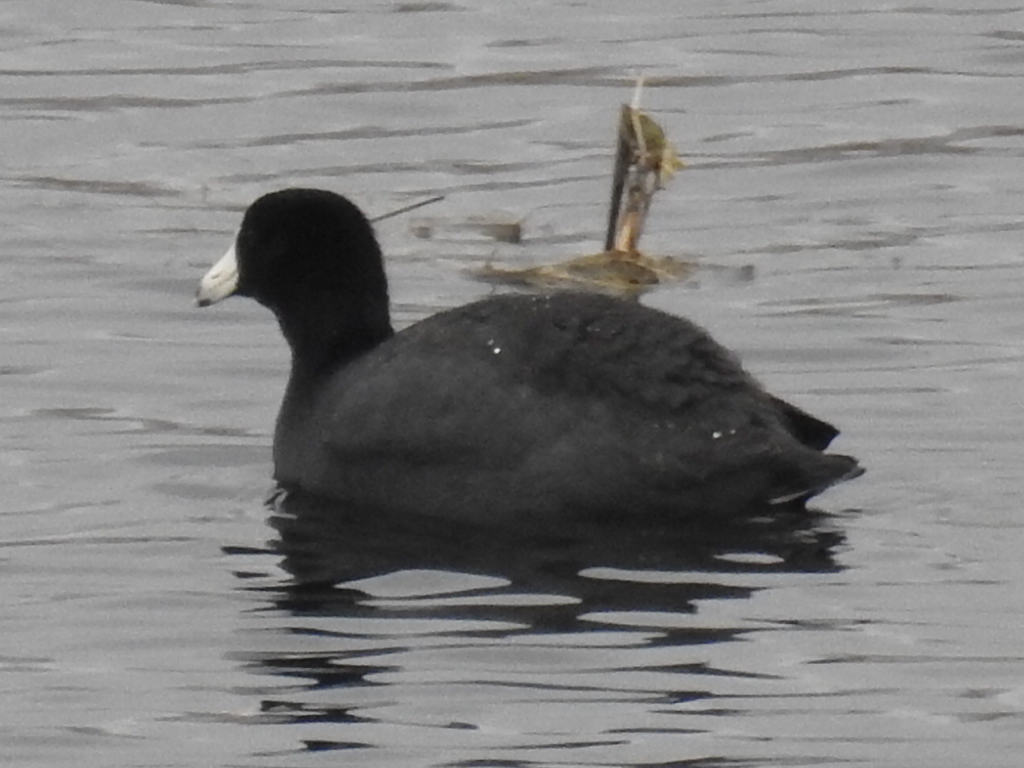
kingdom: Animalia
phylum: Chordata
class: Aves
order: Gruiformes
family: Rallidae
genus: Fulica
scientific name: Fulica americana
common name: American coot
